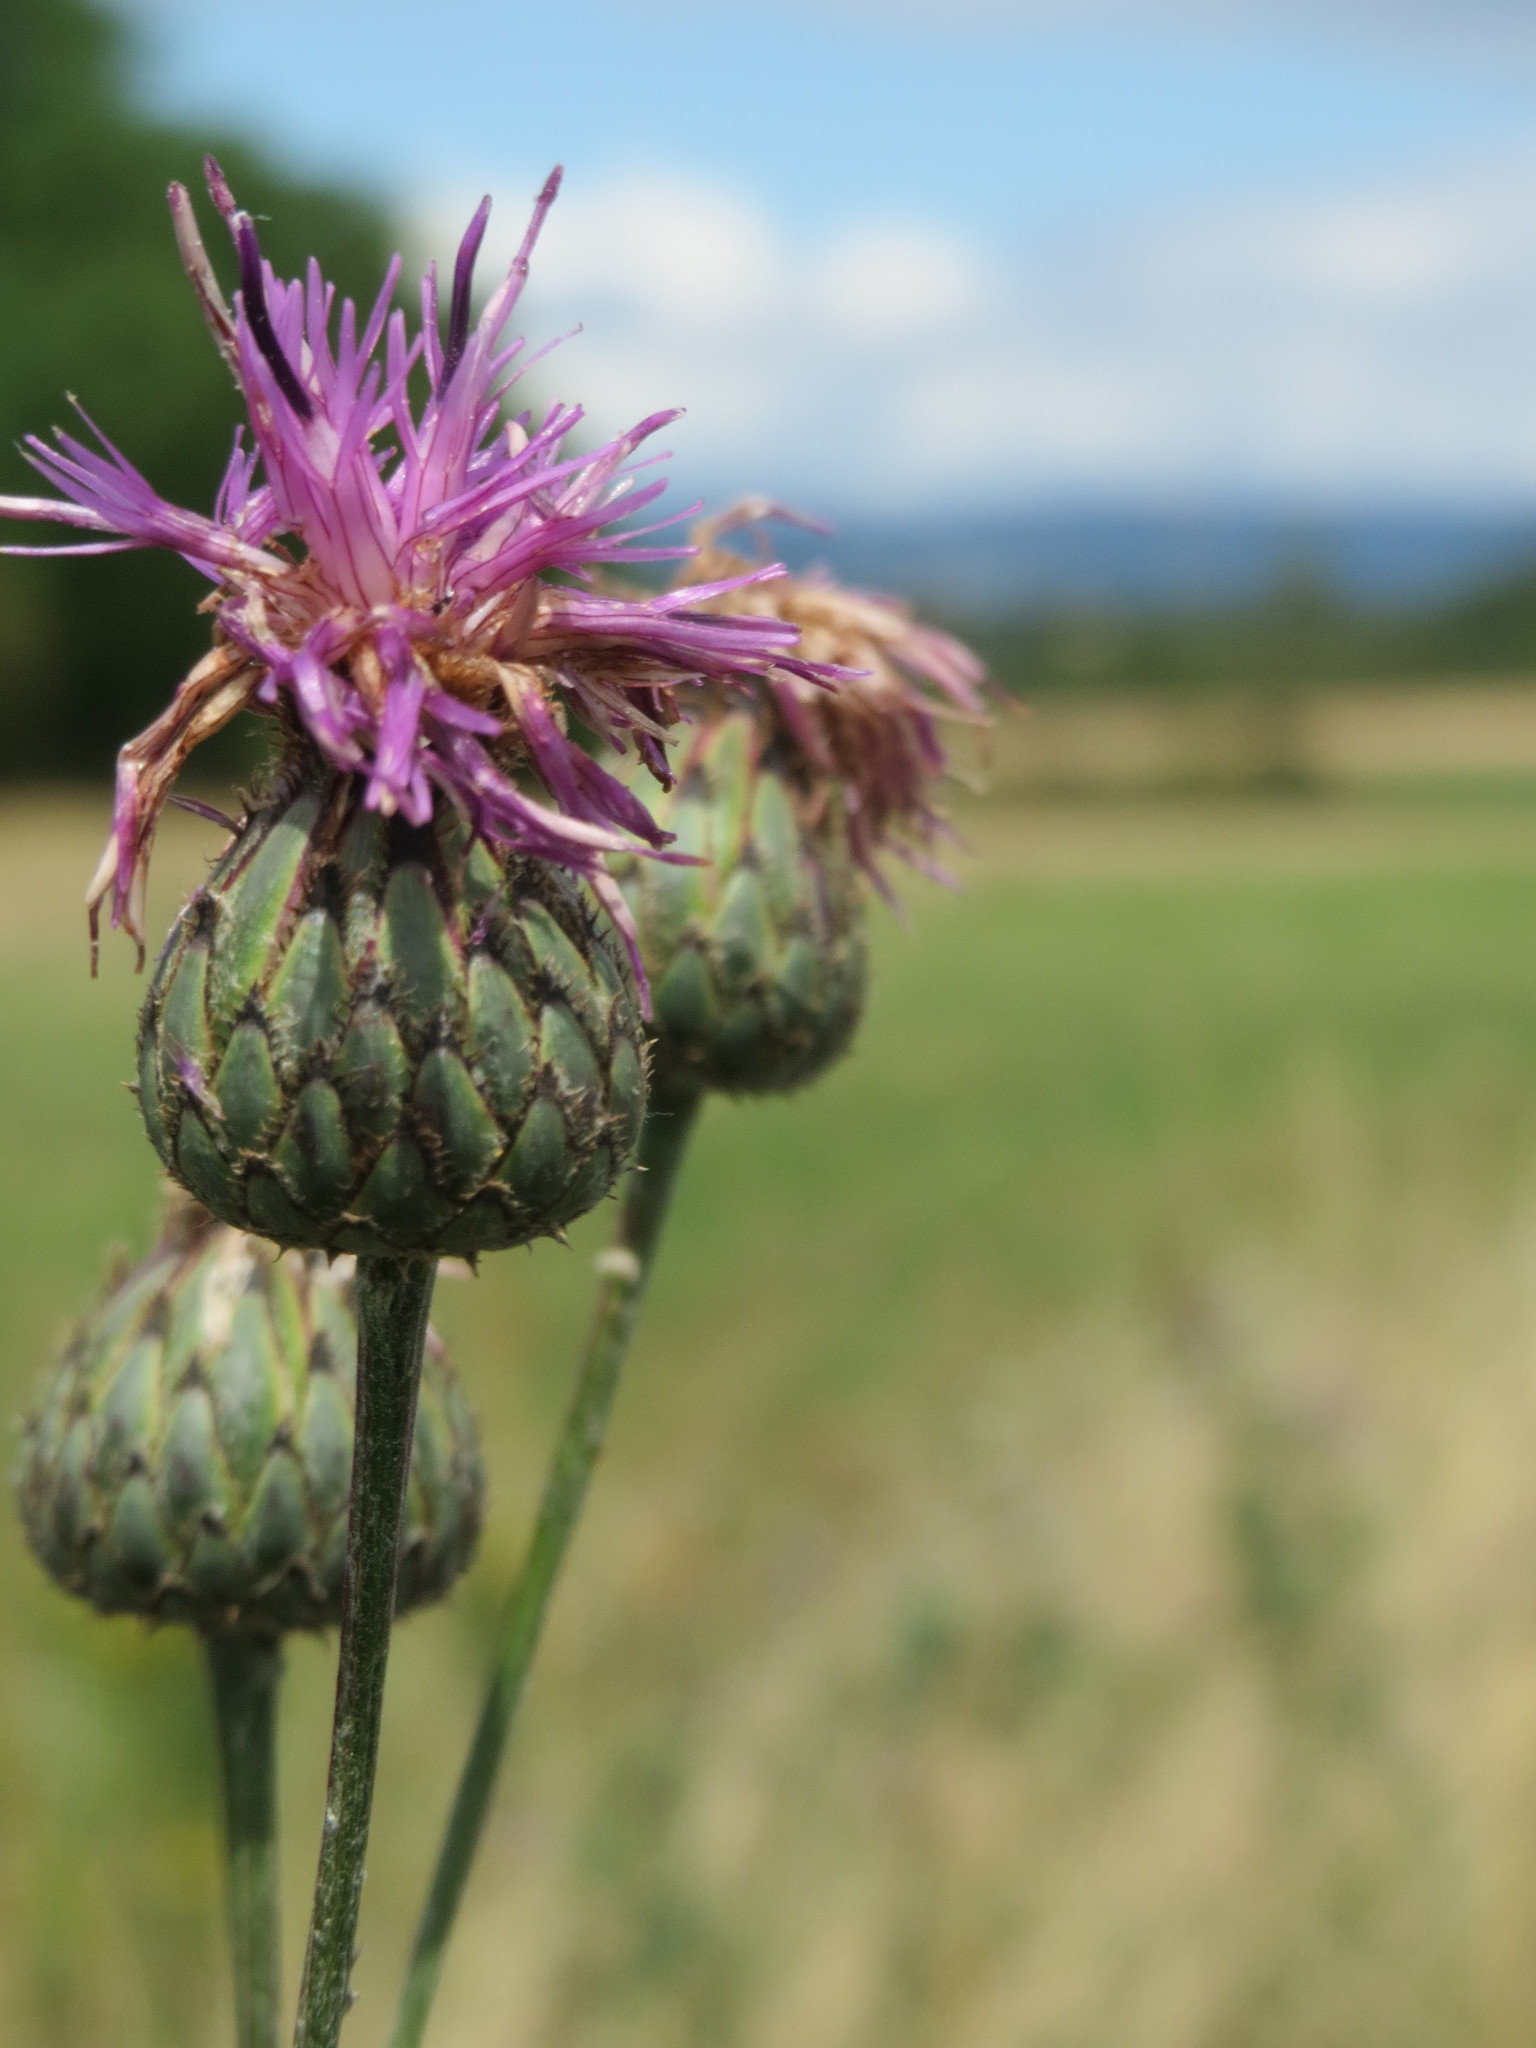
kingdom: Plantae
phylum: Tracheophyta
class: Magnoliopsida
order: Asterales
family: Asteraceae
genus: Centaurea
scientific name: Centaurea scabiosa
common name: Greater knapweed
